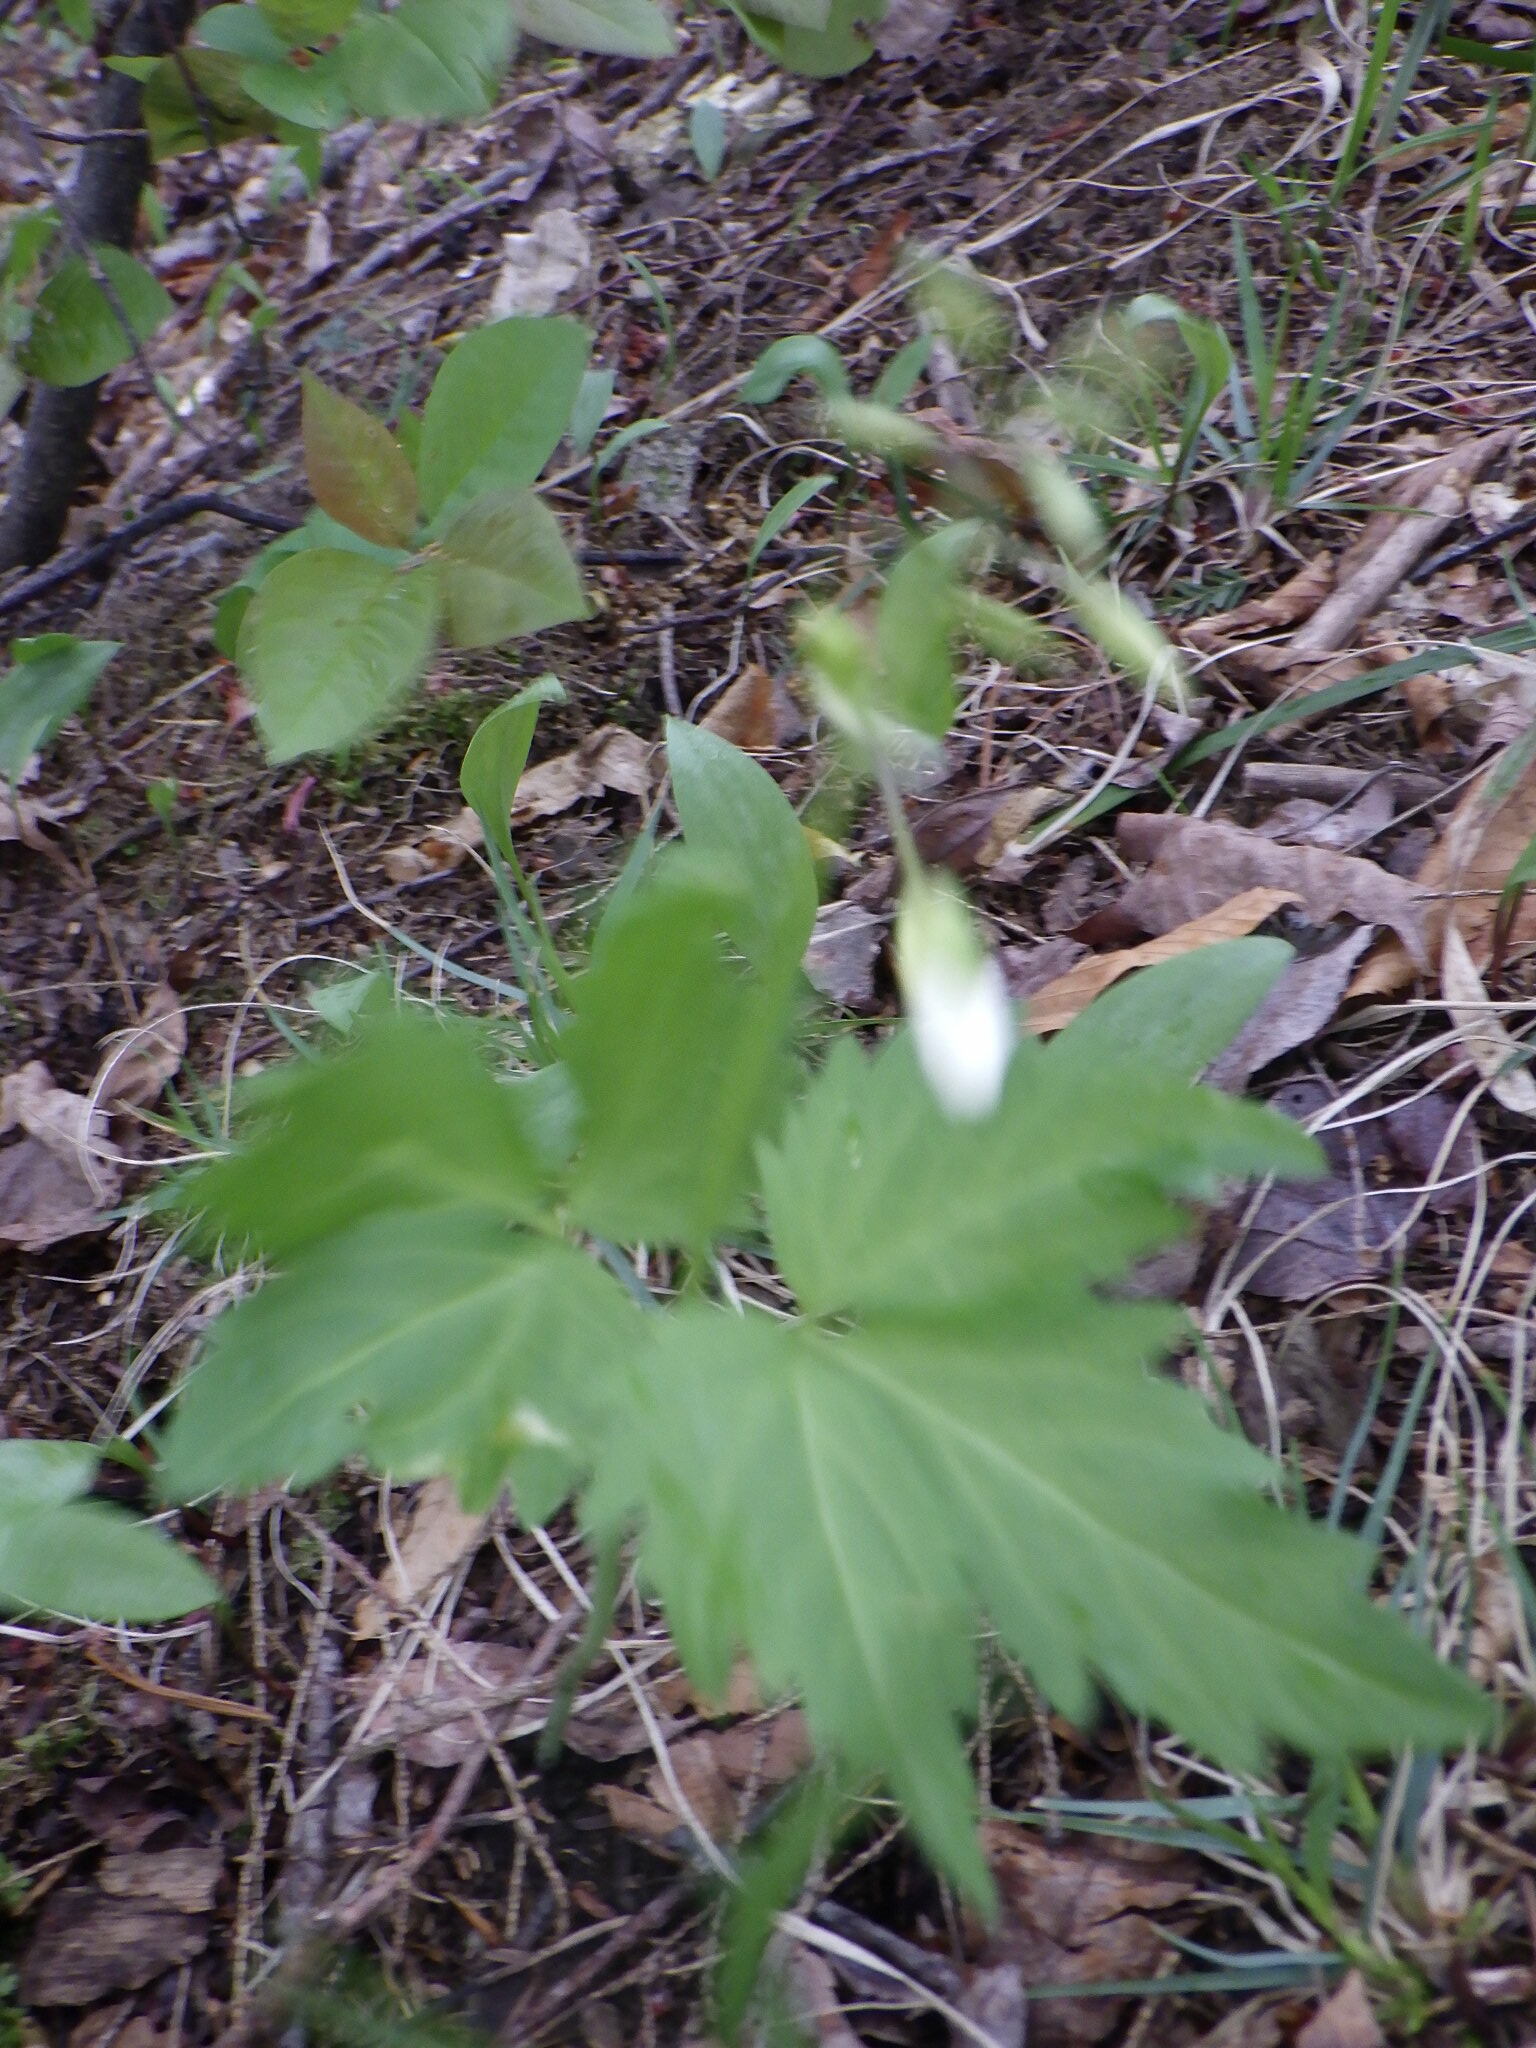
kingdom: Plantae
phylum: Tracheophyta
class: Magnoliopsida
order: Brassicales
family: Brassicaceae
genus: Cardamine
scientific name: Cardamine diphylla
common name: Broad-leaved toothwort
